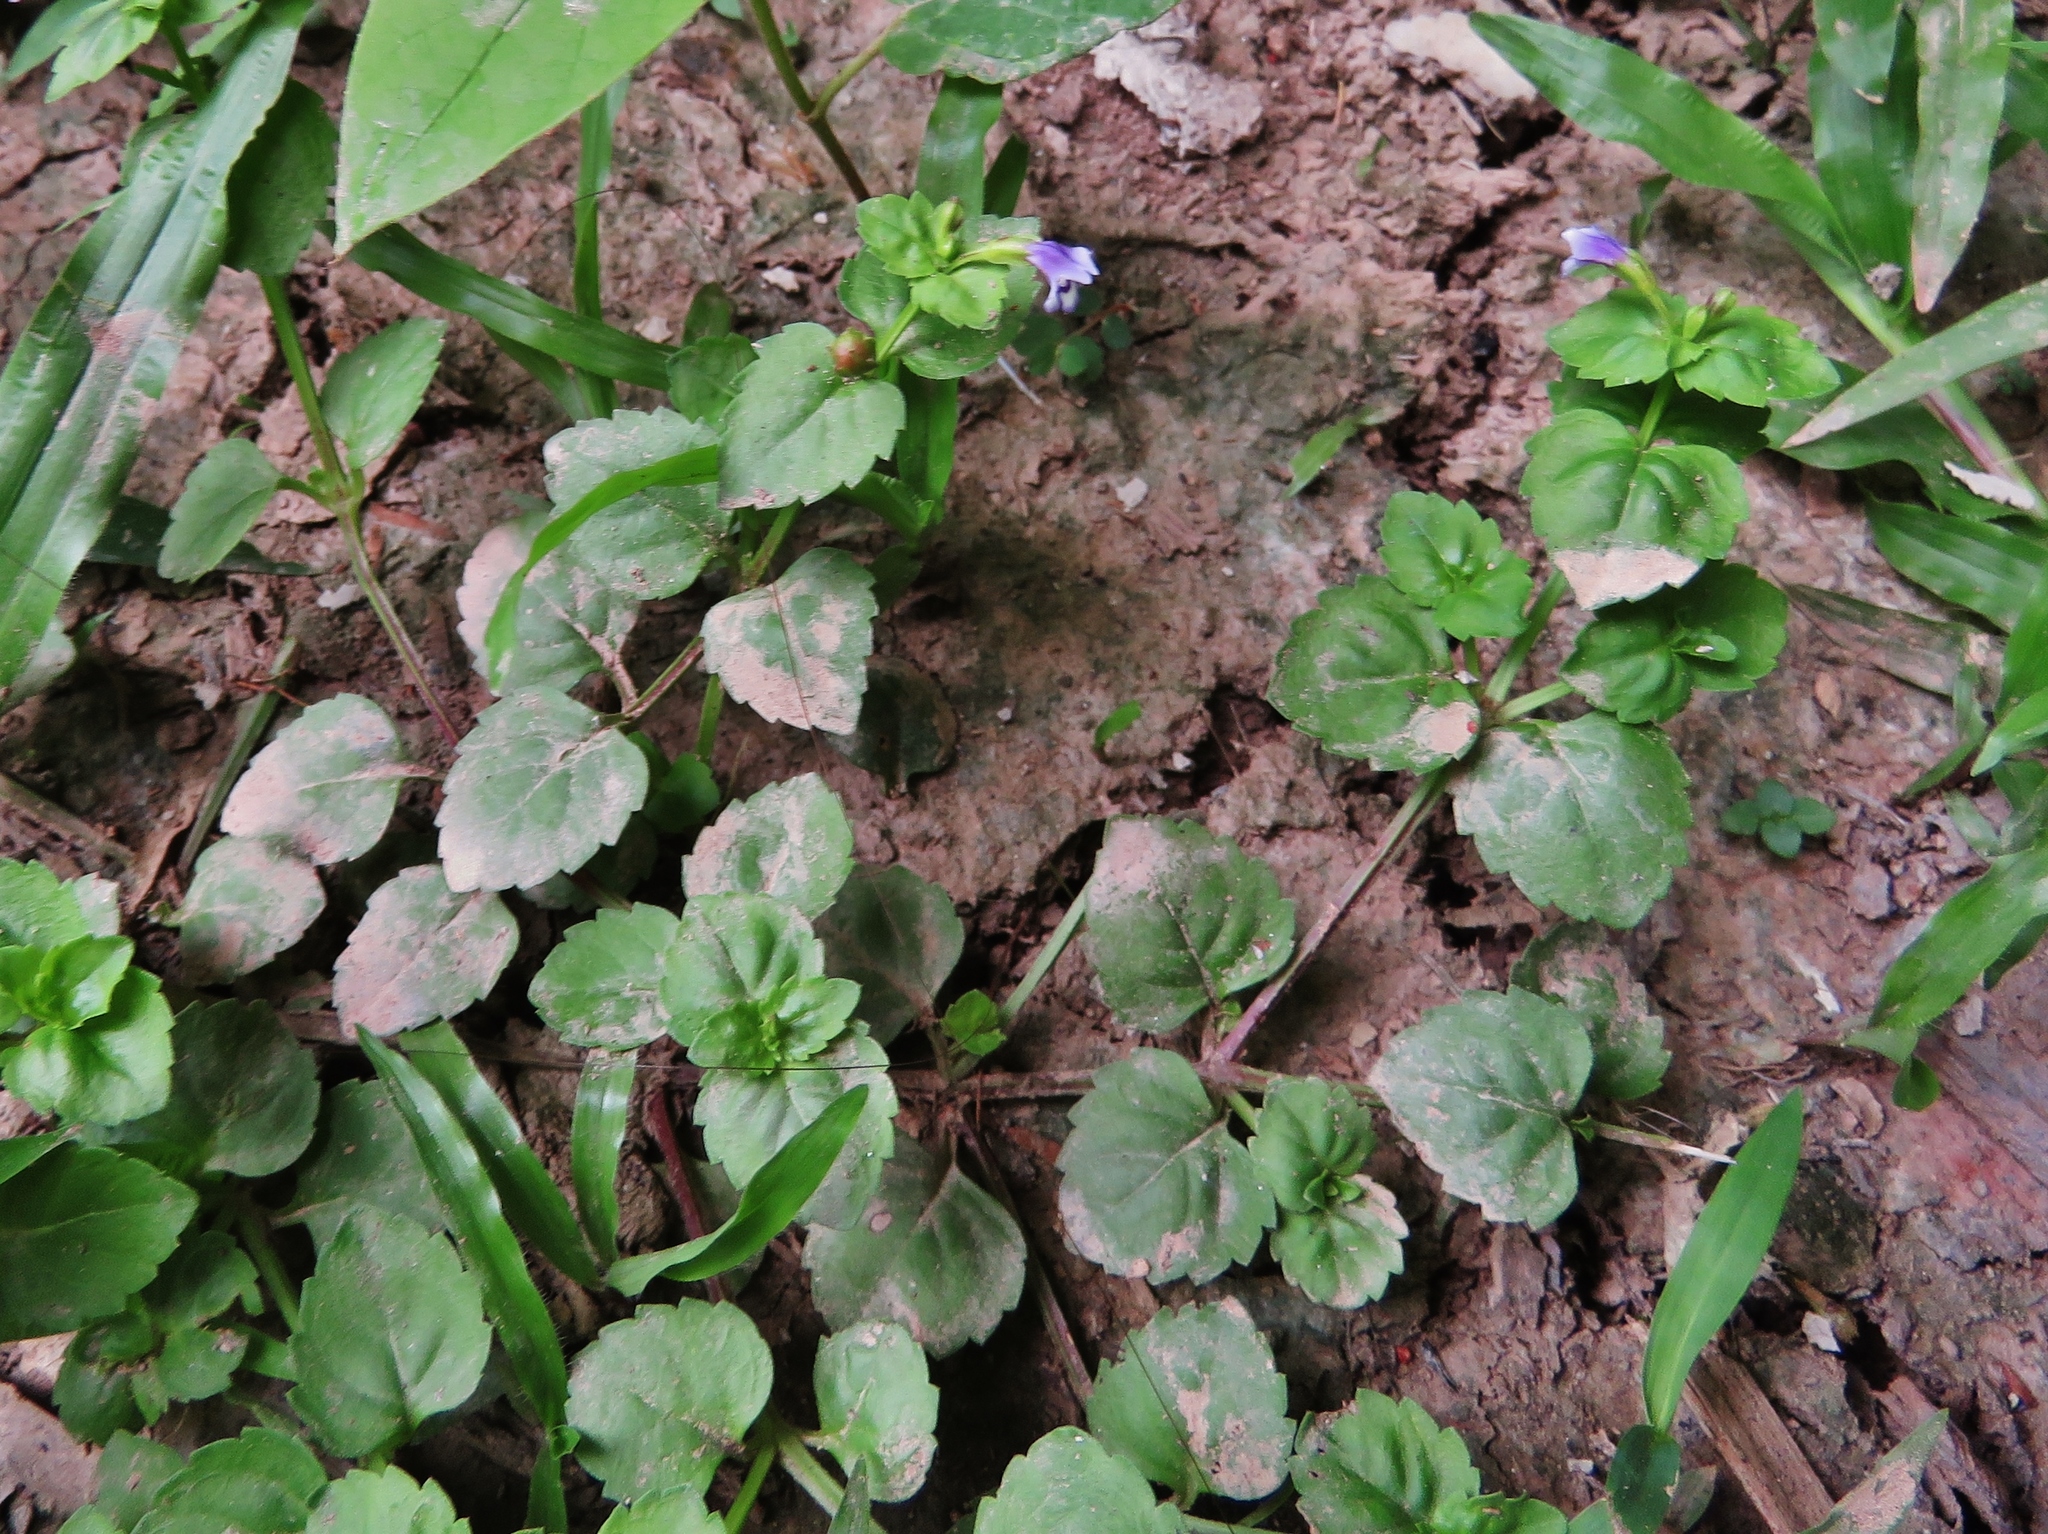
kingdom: Plantae
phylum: Tracheophyta
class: Magnoliopsida
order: Lamiales
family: Linderniaceae
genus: Torenia
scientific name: Torenia crustacea
